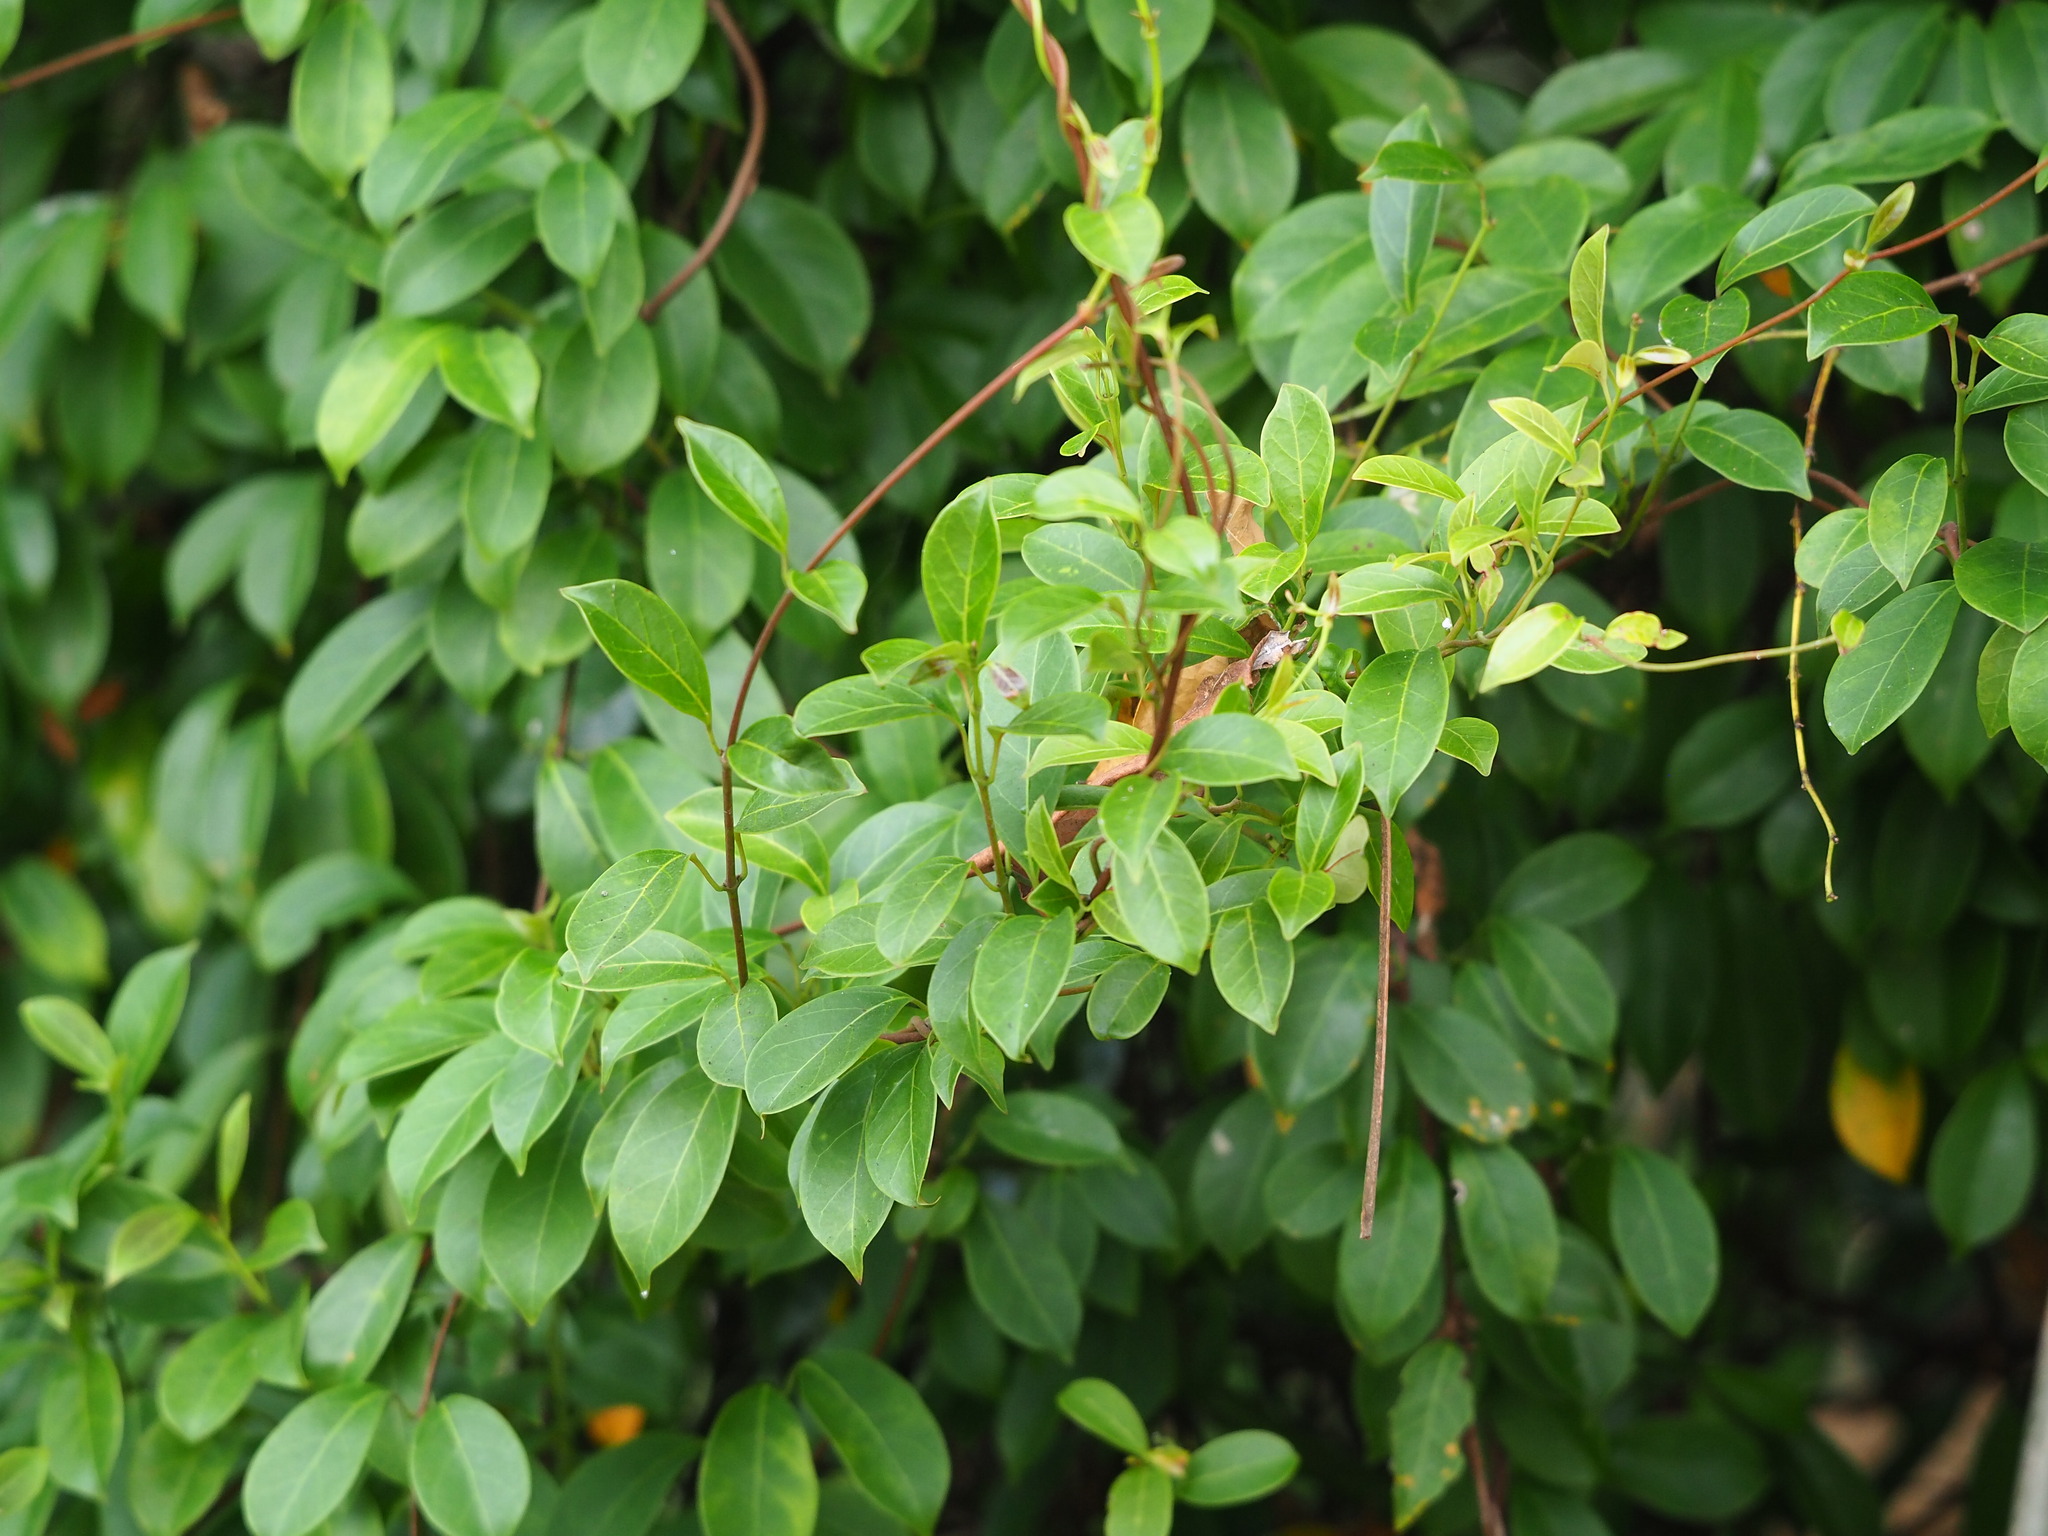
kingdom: Plantae
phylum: Tracheophyta
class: Magnoliopsida
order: Gentianales
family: Apocynaceae
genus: Urceola
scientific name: Urceola rosea
